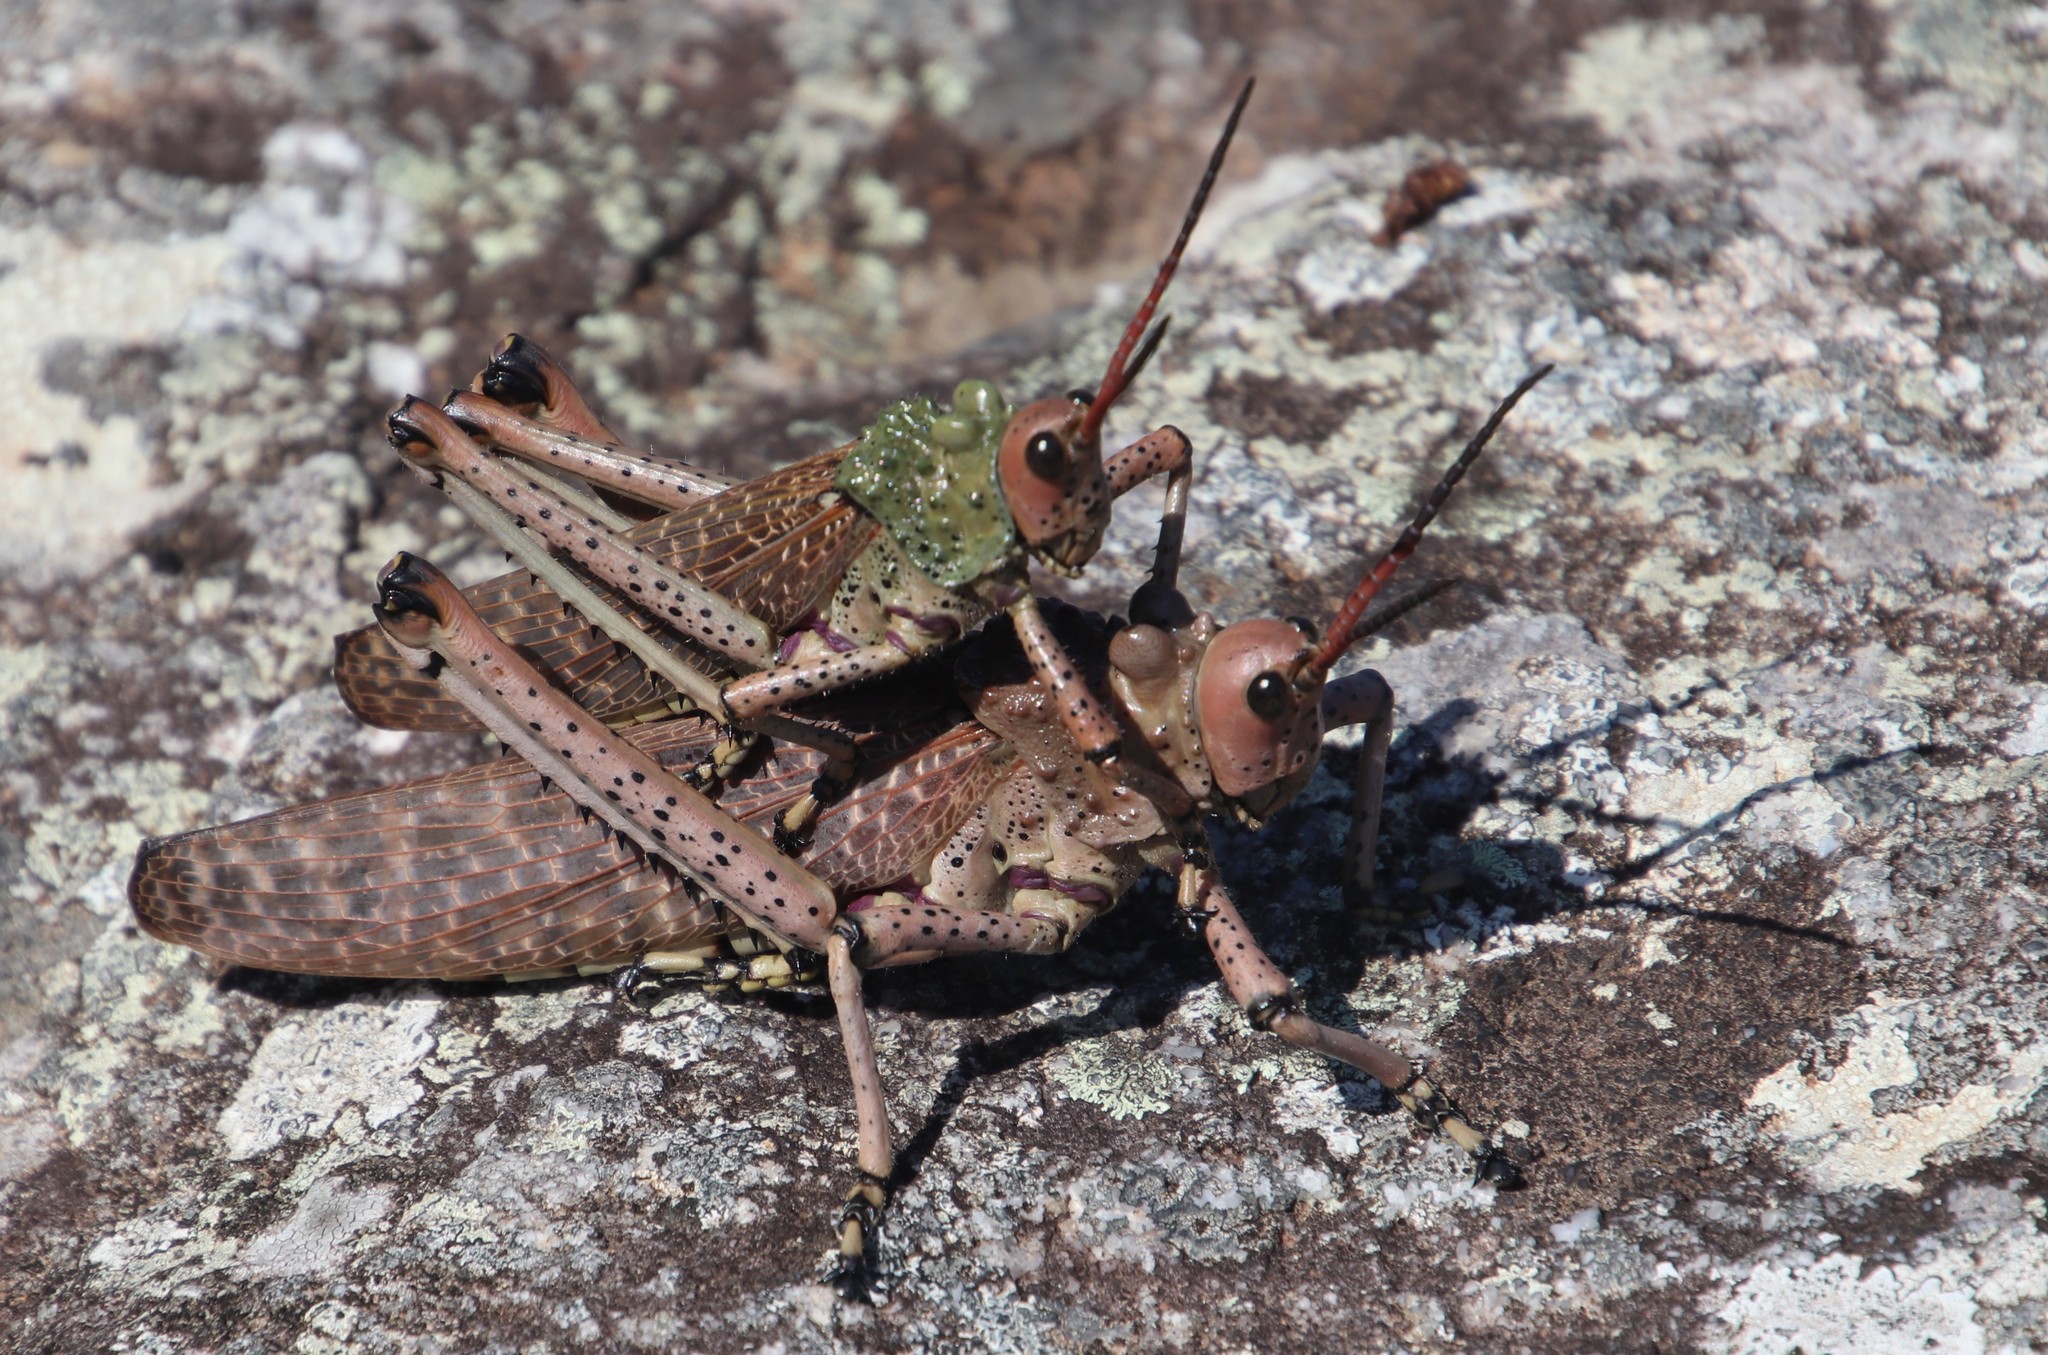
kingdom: Animalia
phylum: Arthropoda
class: Insecta
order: Orthoptera
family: Pyrgomorphidae
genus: Phymateus
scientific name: Phymateus leprosus
